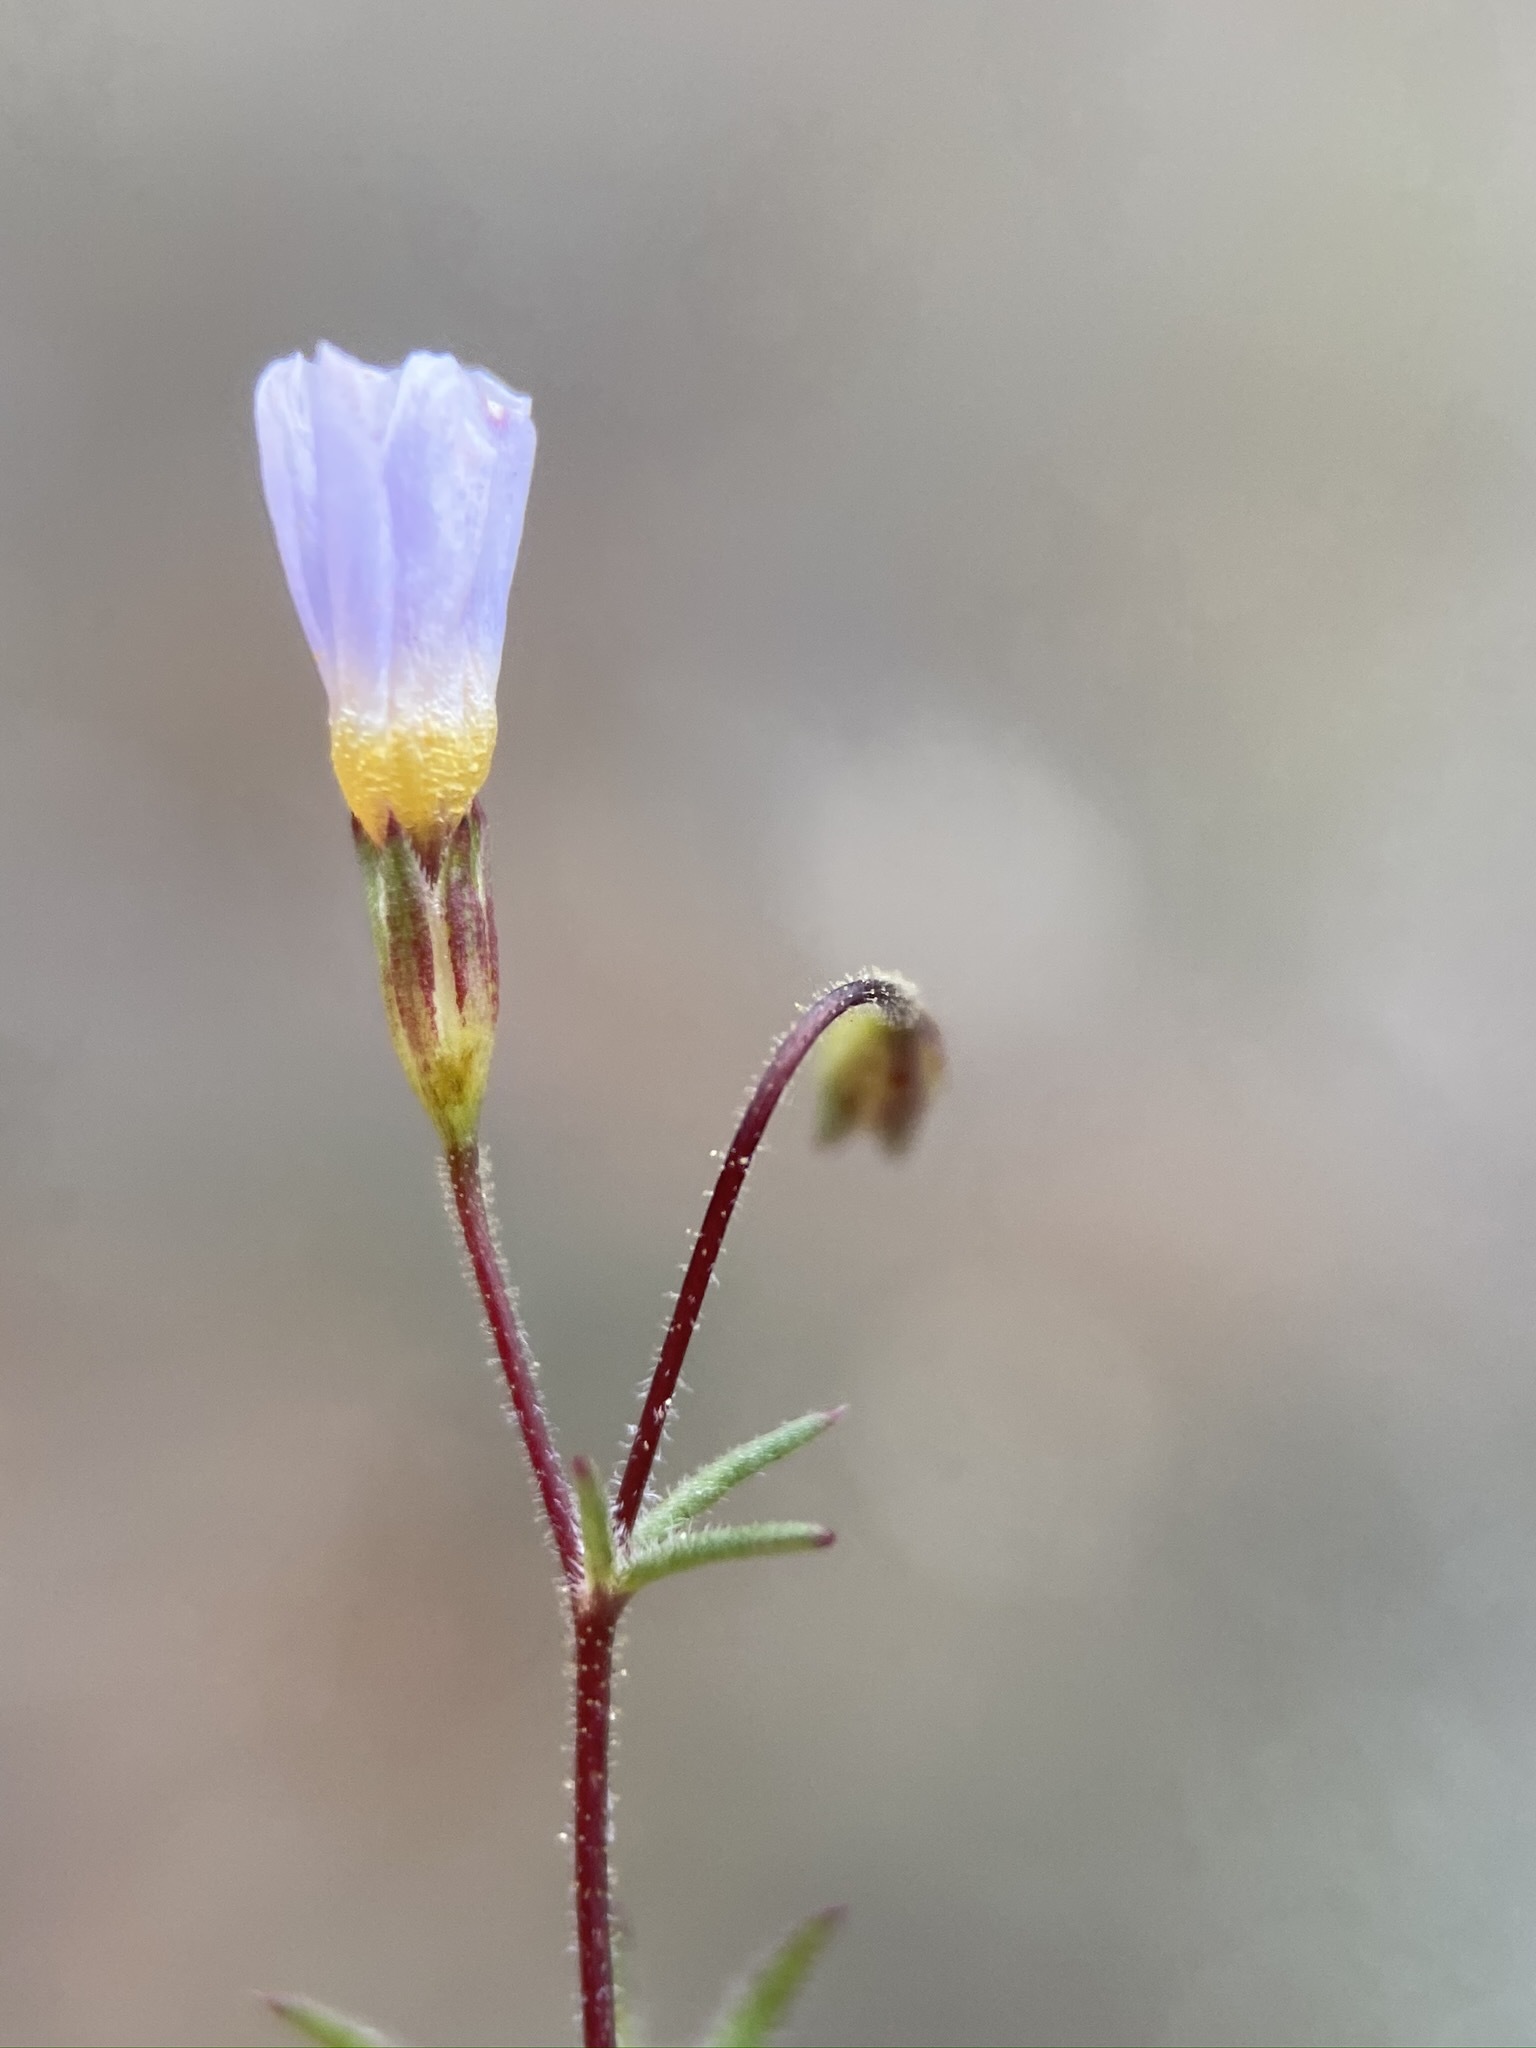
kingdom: Plantae
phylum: Tracheophyta
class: Magnoliopsida
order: Ericales
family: Polemoniaceae
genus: Leptosiphon
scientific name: Leptosiphon bolanderi
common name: Bolander's linanthus
